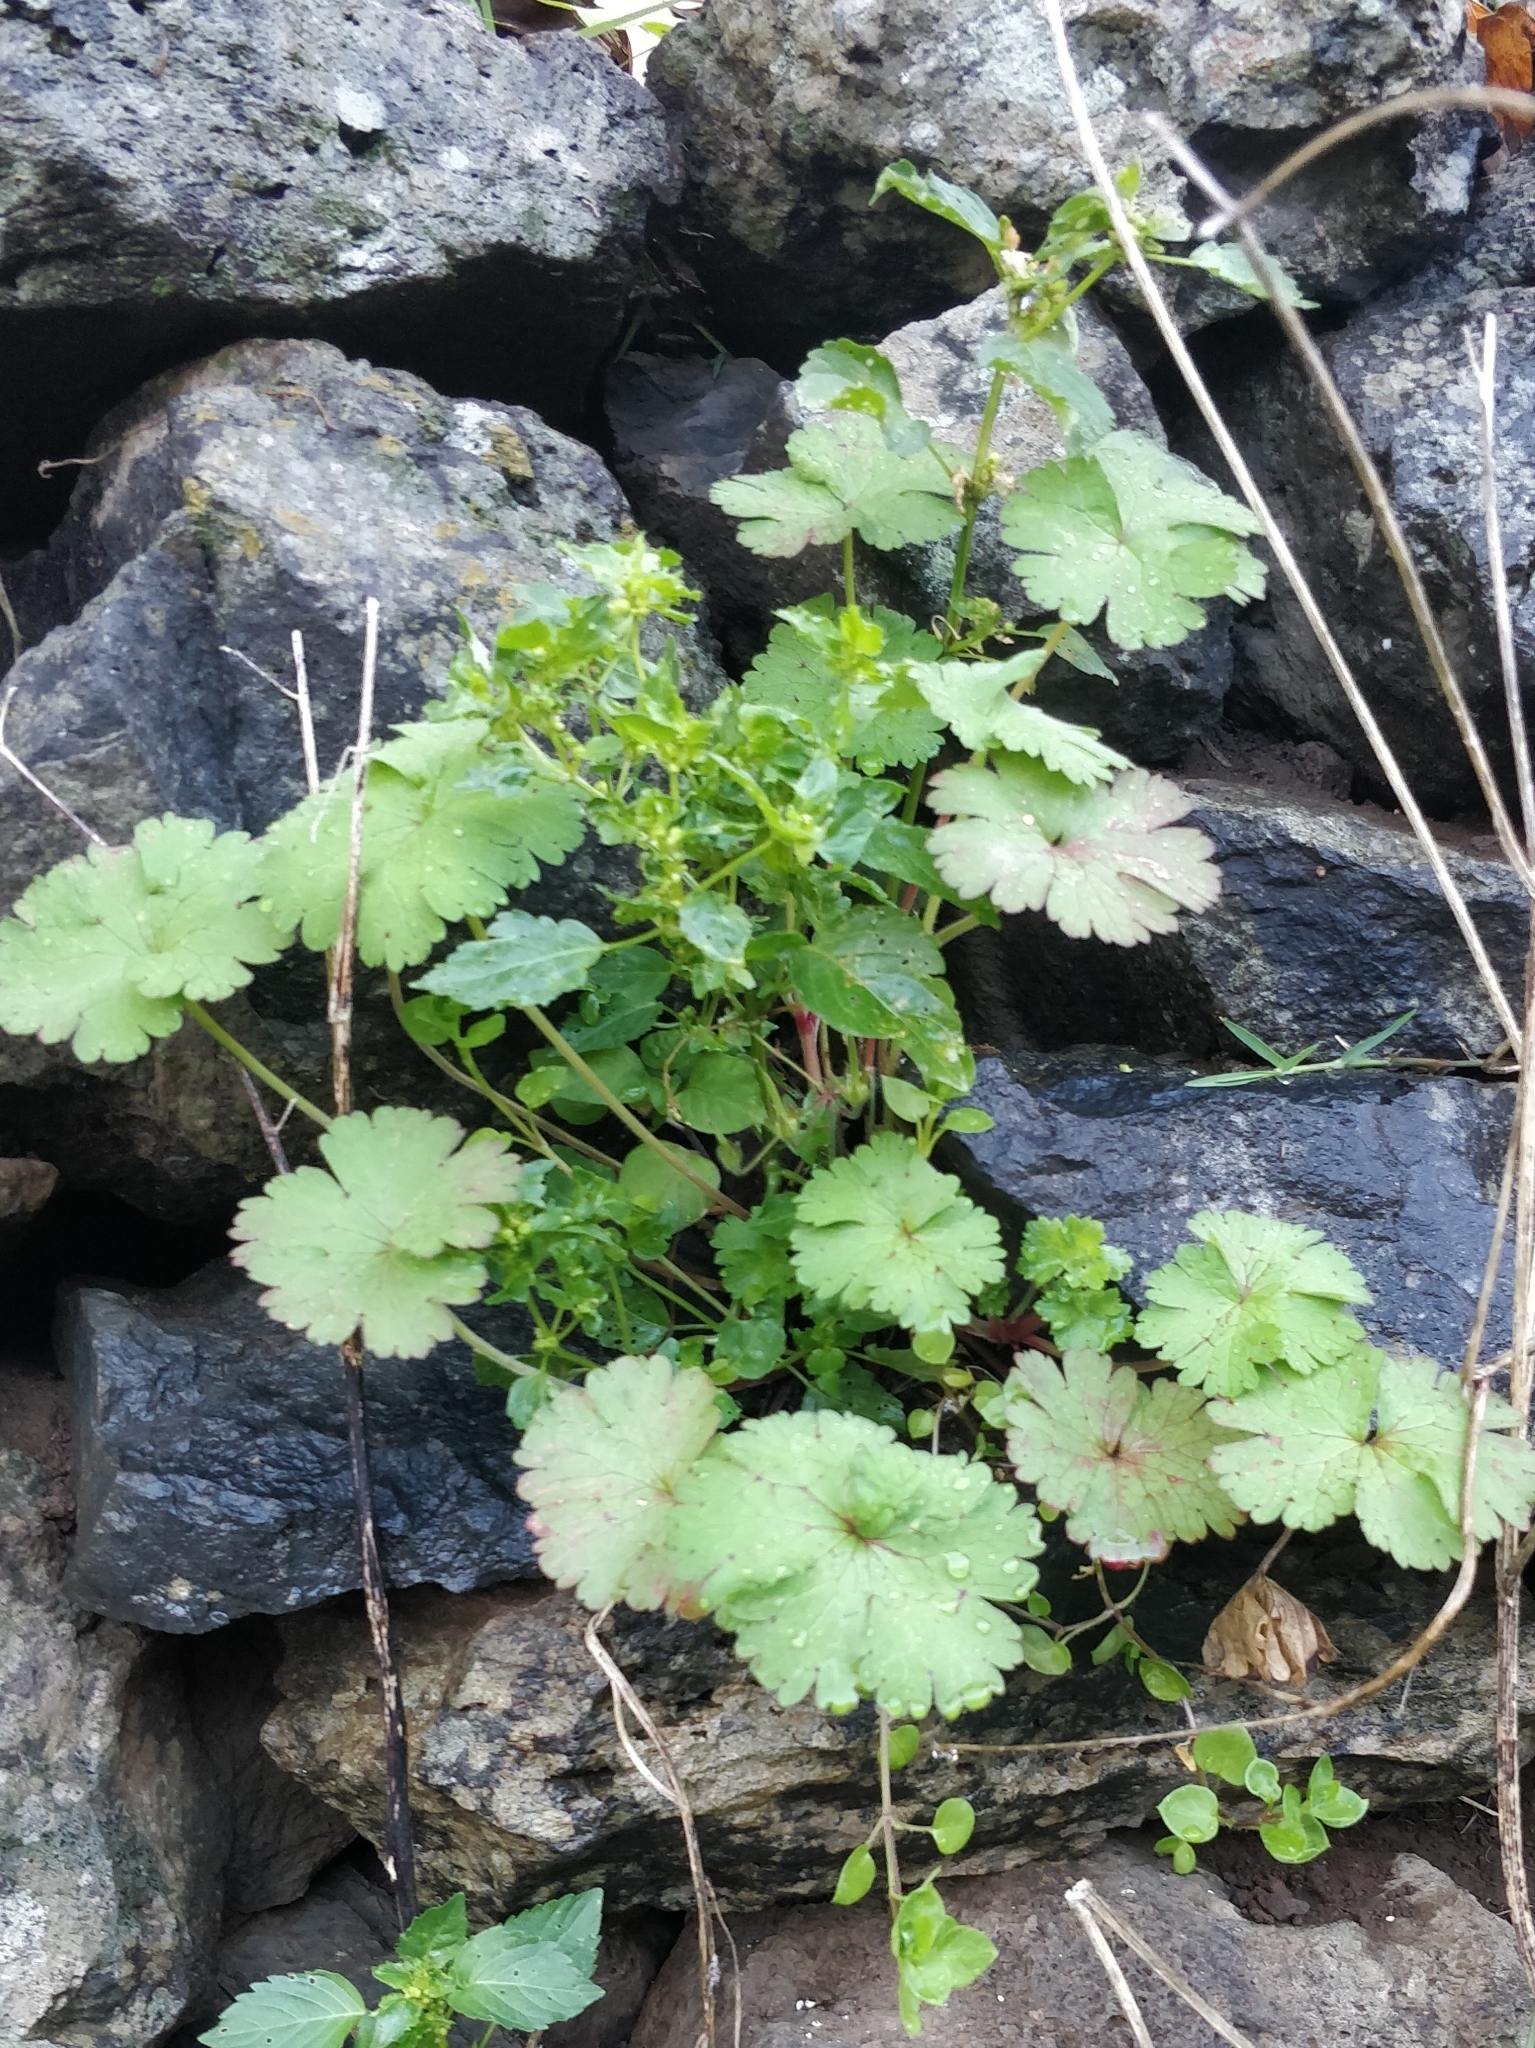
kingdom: Plantae
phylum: Tracheophyta
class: Magnoliopsida
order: Geraniales
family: Geraniaceae
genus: Geranium
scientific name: Geranium rotundifolium
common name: Round-leaved crane's-bill
